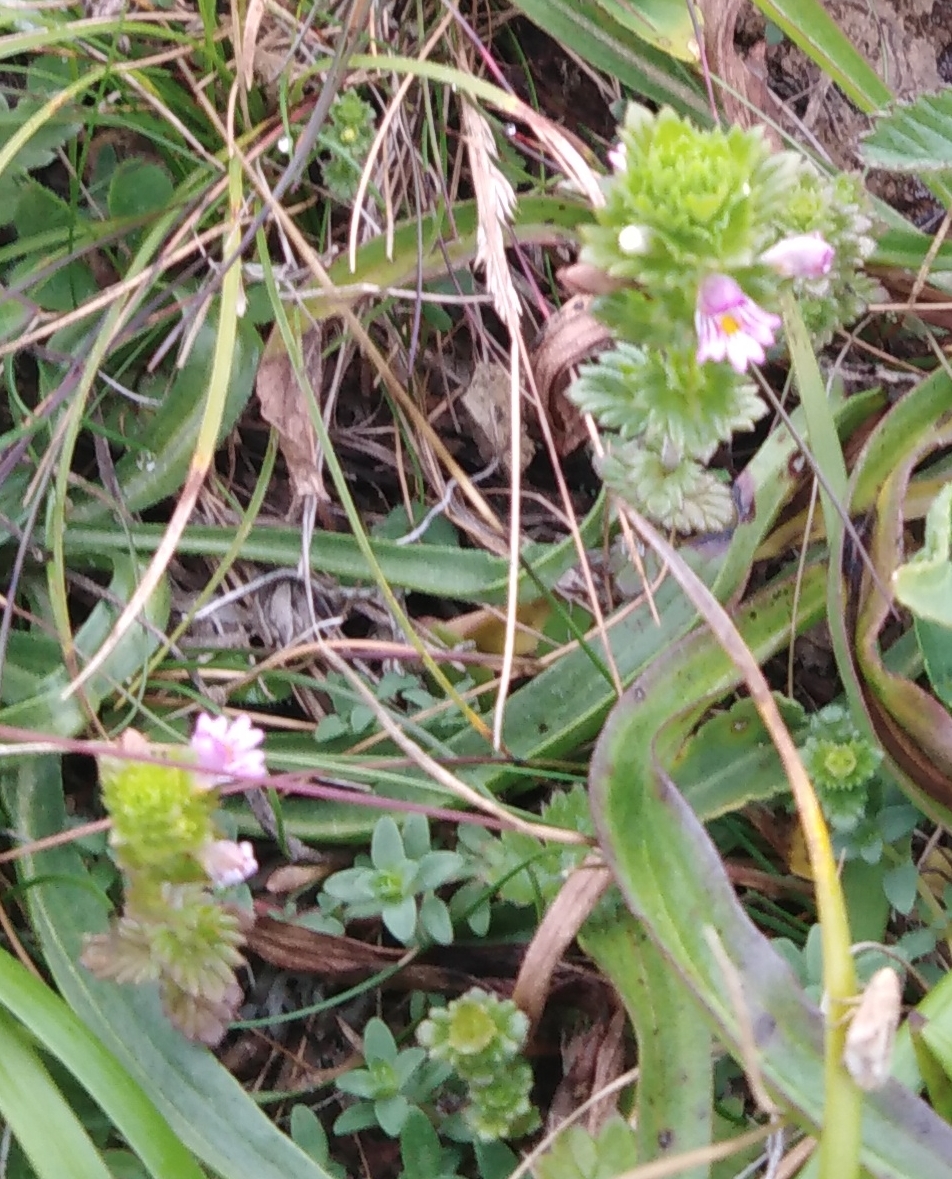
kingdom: Plantae
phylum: Tracheophyta
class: Magnoliopsida
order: Lamiales
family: Orobanchaceae
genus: Euphrasia
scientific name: Euphrasia maximowiczii
